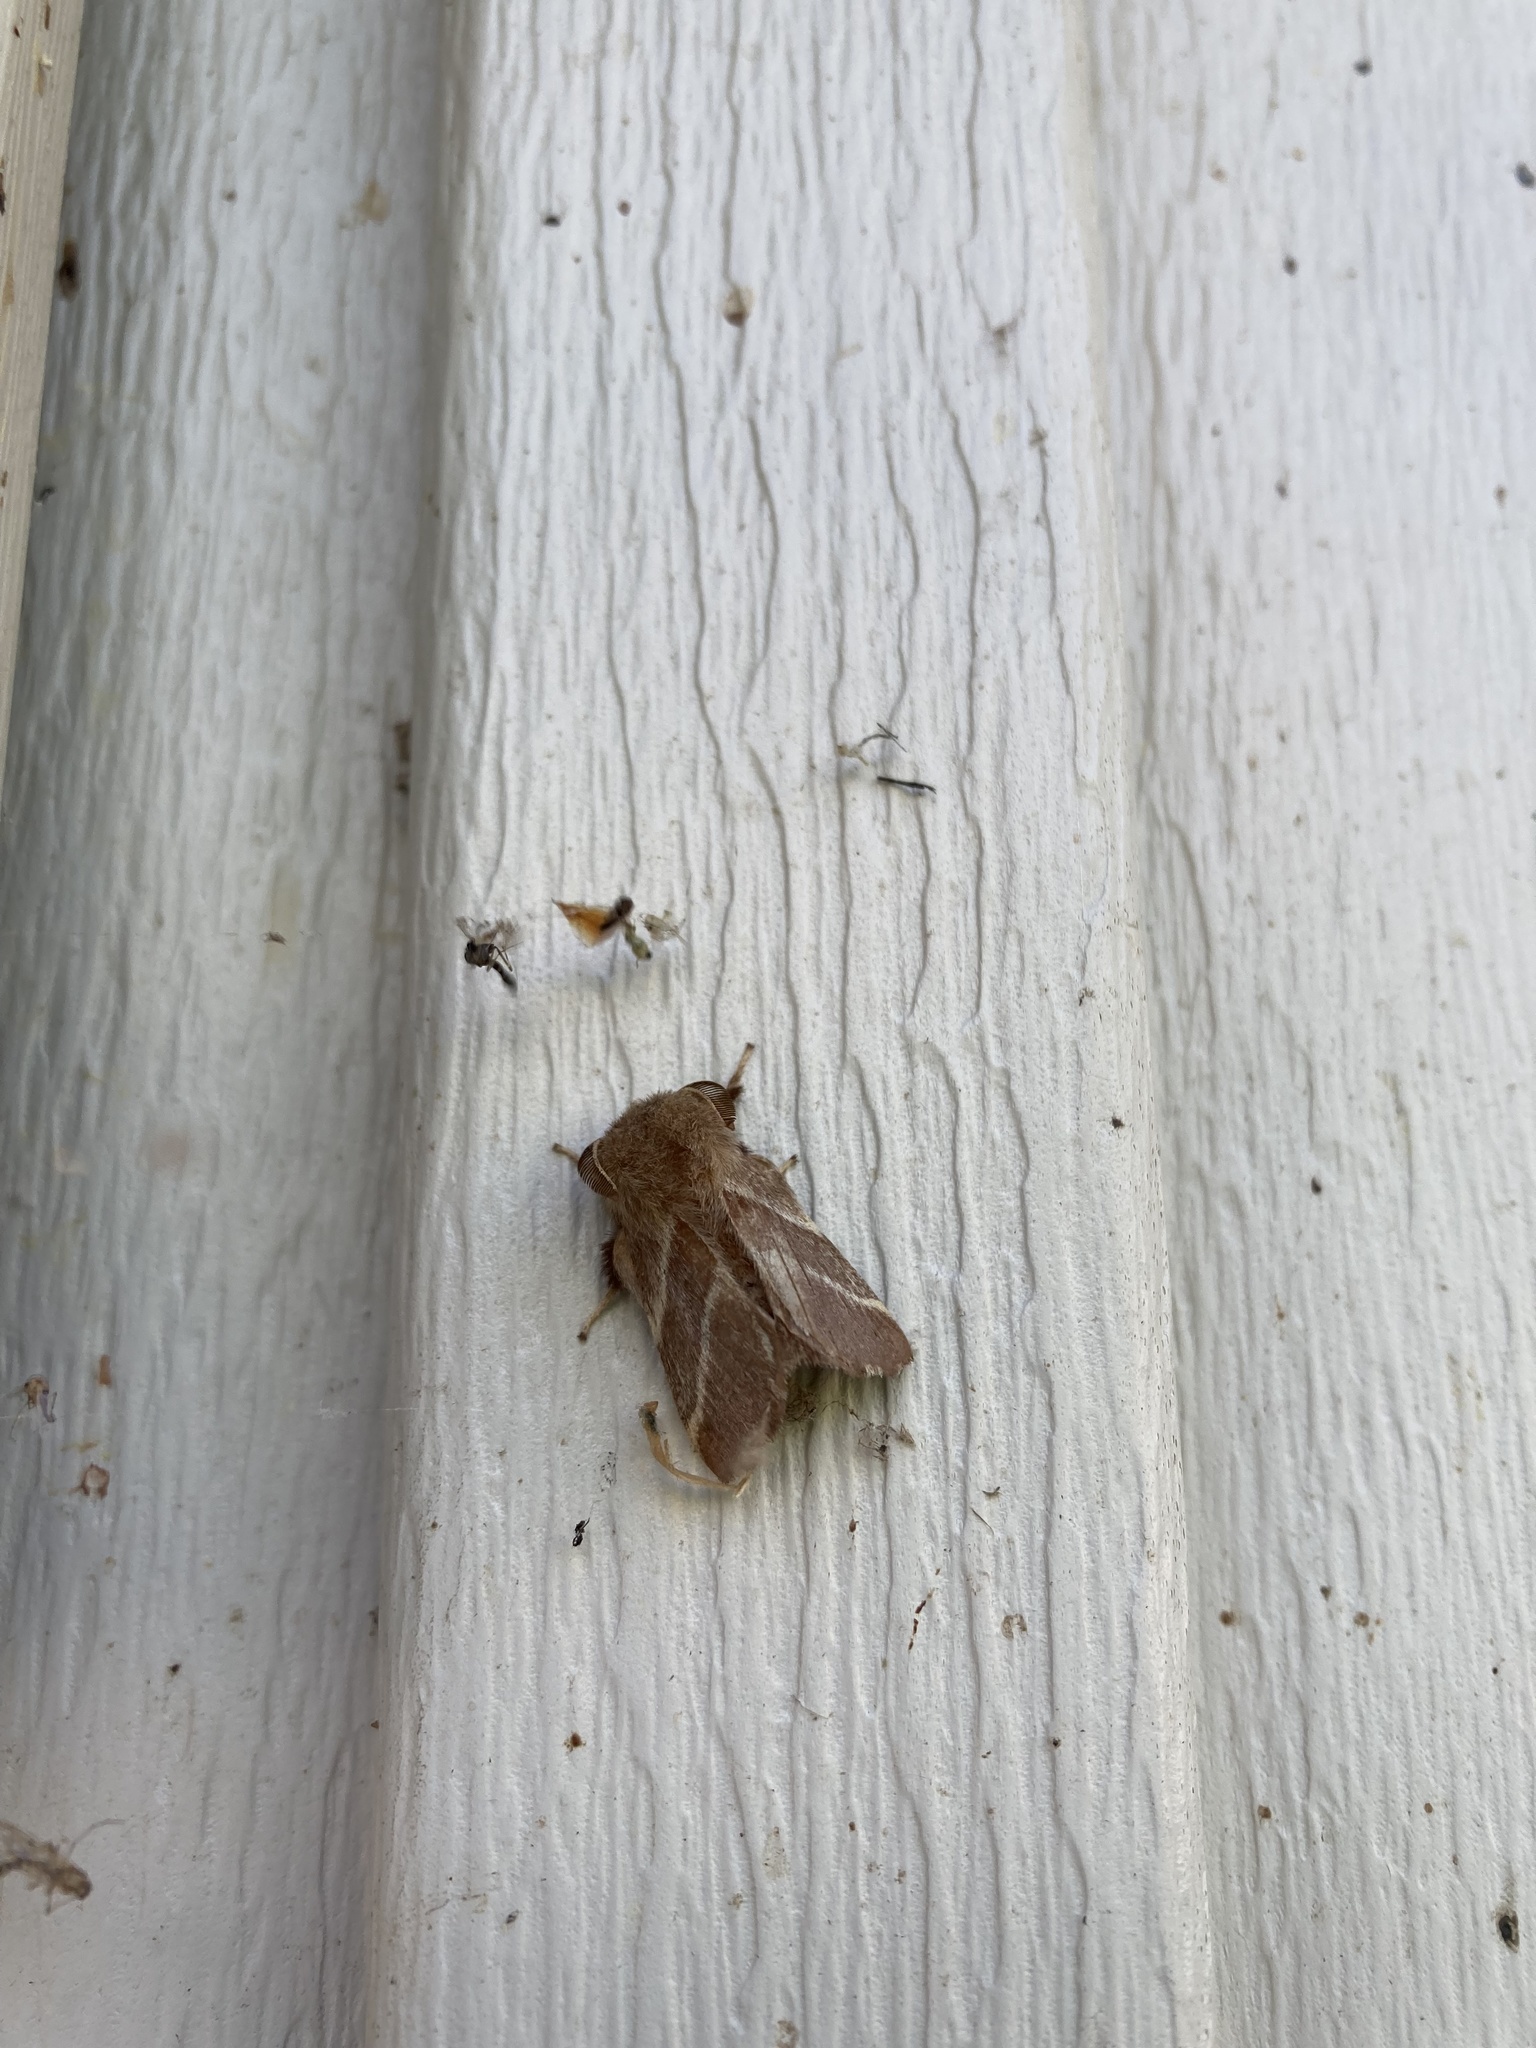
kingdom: Animalia
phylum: Arthropoda
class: Insecta
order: Lepidoptera
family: Lasiocampidae
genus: Malacosoma
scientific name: Malacosoma americana
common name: Eastern tent caterpillar moth
